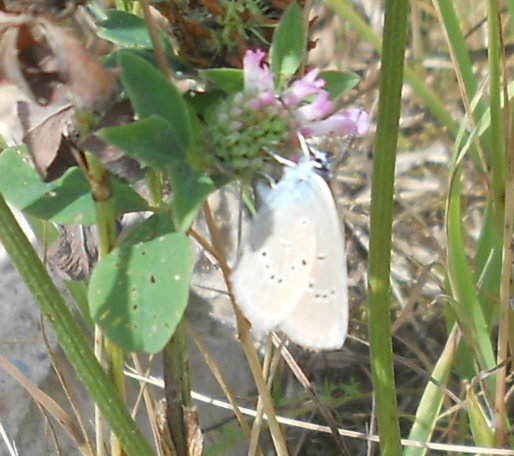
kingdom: Animalia
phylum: Arthropoda
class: Insecta
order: Lepidoptera
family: Lycaenidae
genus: Cyaniris
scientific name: Cyaniris semiargus
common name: Mazarine blue
